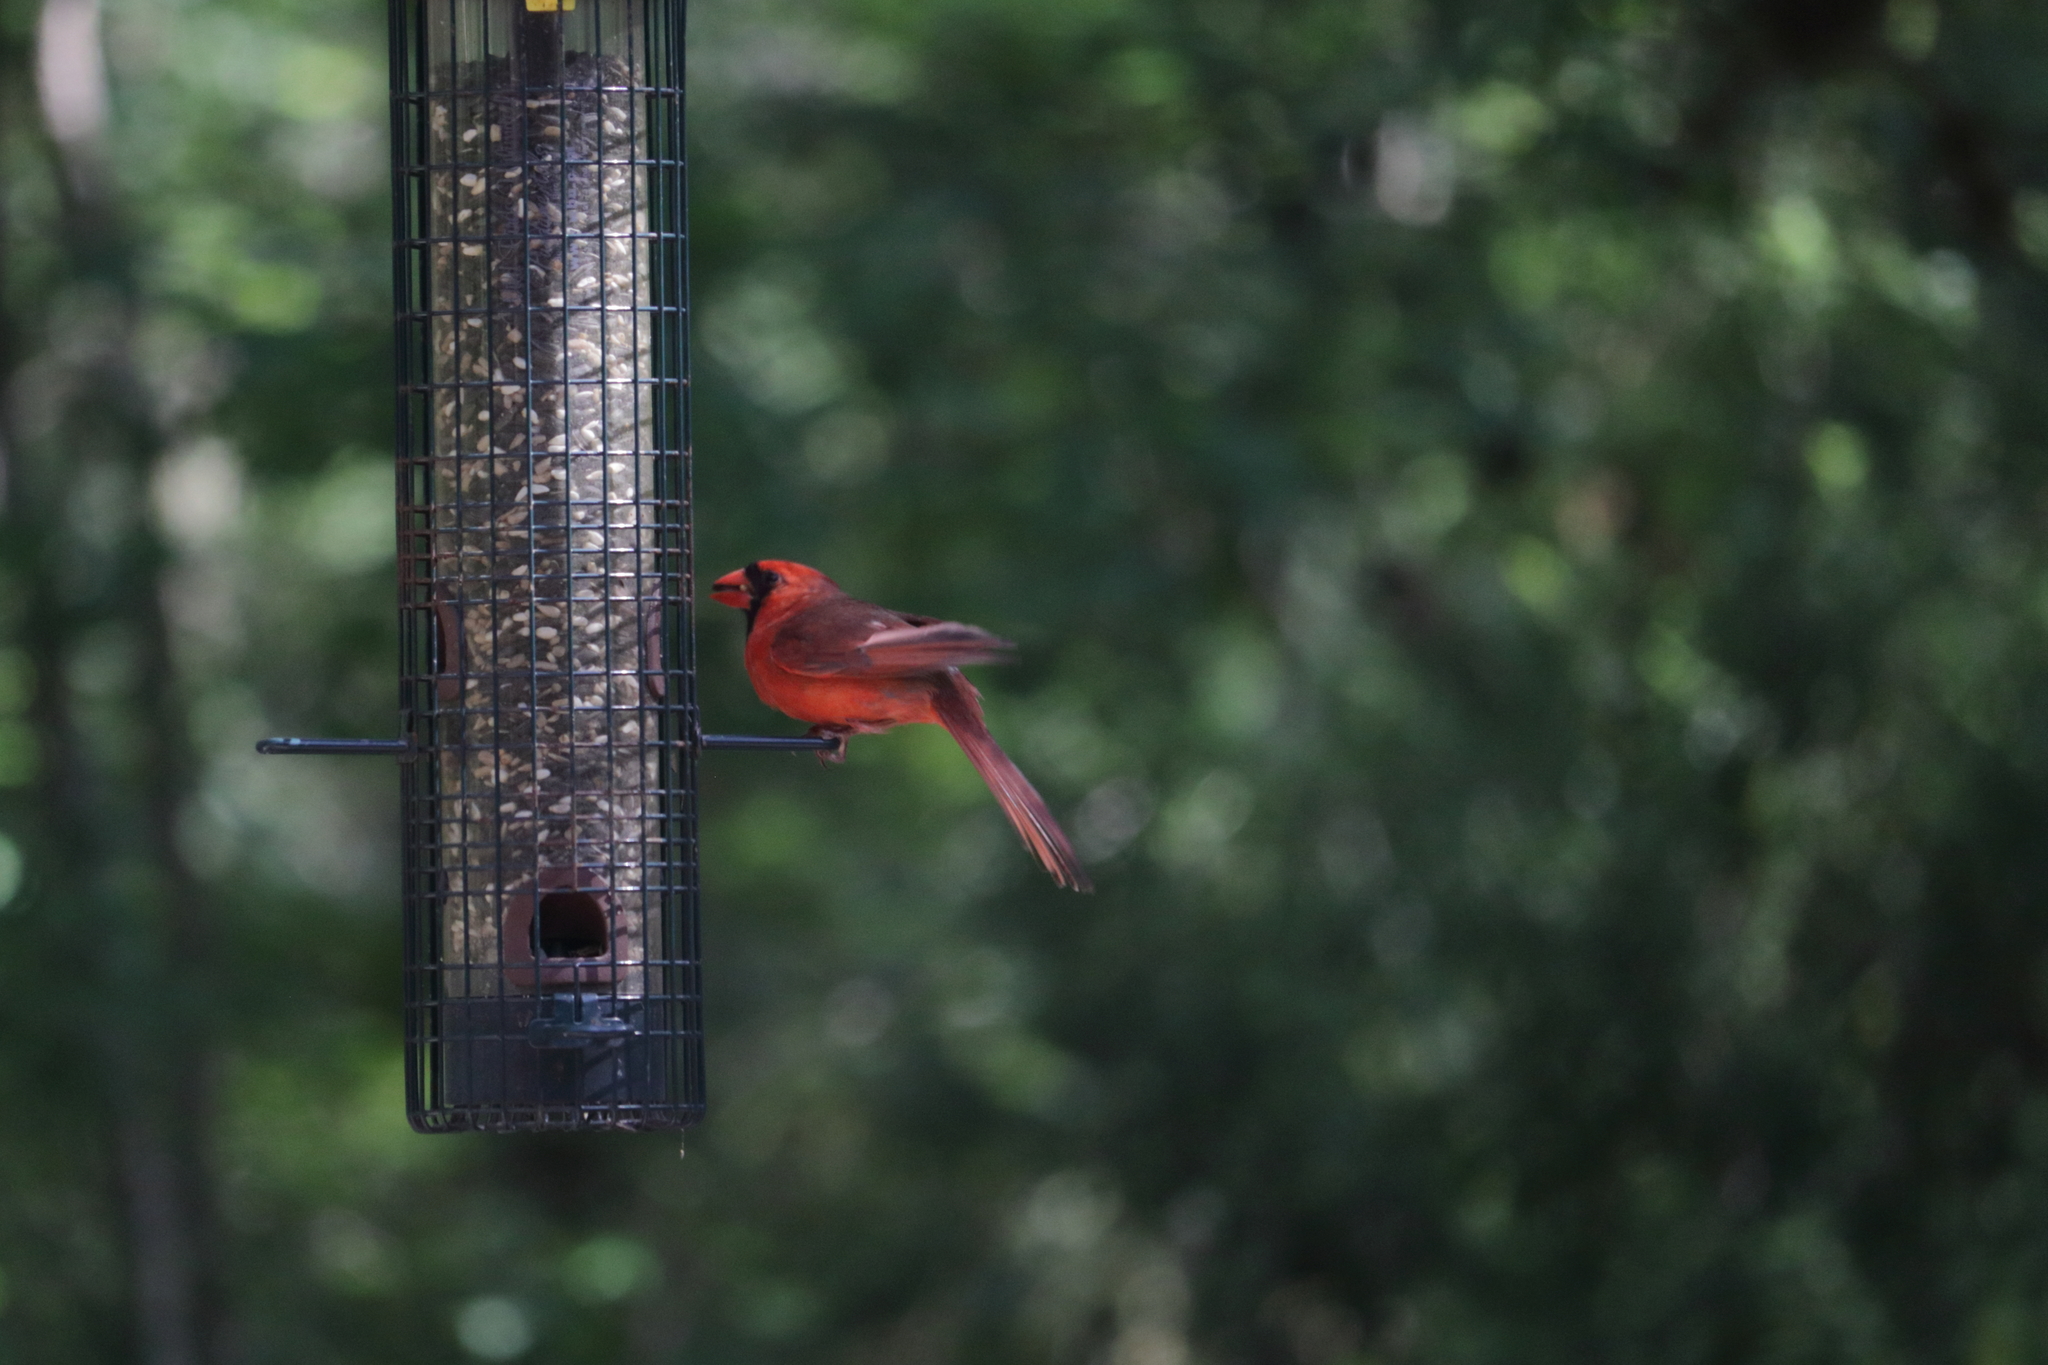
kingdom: Animalia
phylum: Chordata
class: Aves
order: Passeriformes
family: Cardinalidae
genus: Cardinalis
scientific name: Cardinalis cardinalis
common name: Northern cardinal
